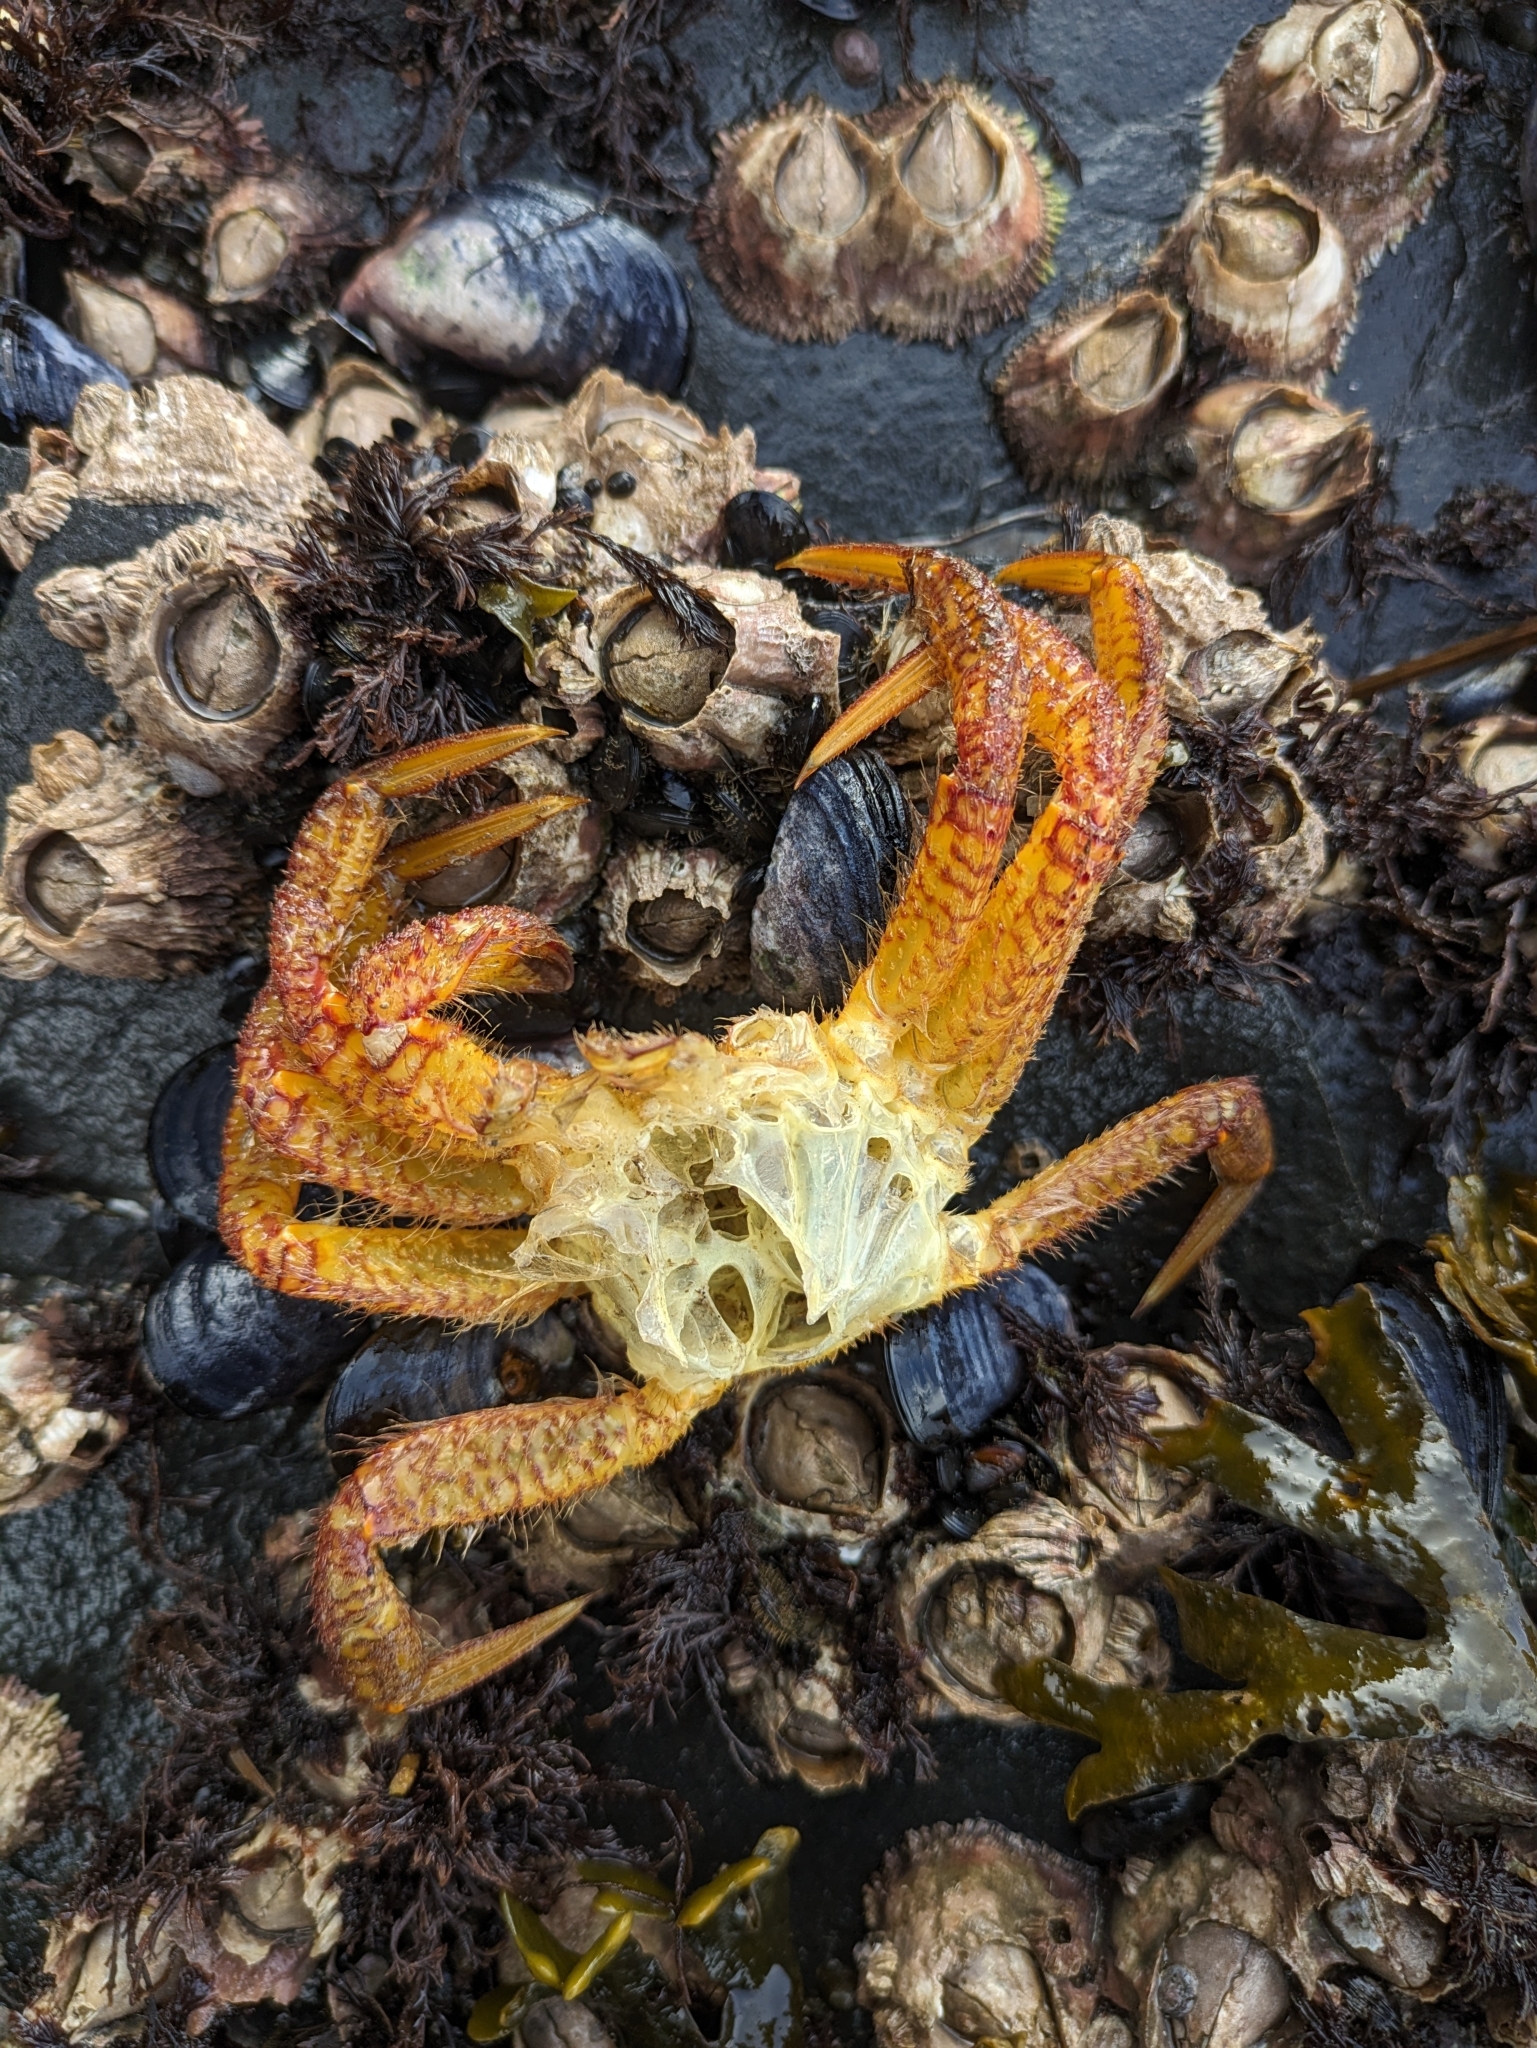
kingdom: Animalia
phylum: Arthropoda
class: Malacostraca
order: Decapoda
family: Cheiragonidae
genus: Telmessus
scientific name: Telmessus cheiragonus
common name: Helmet crab
